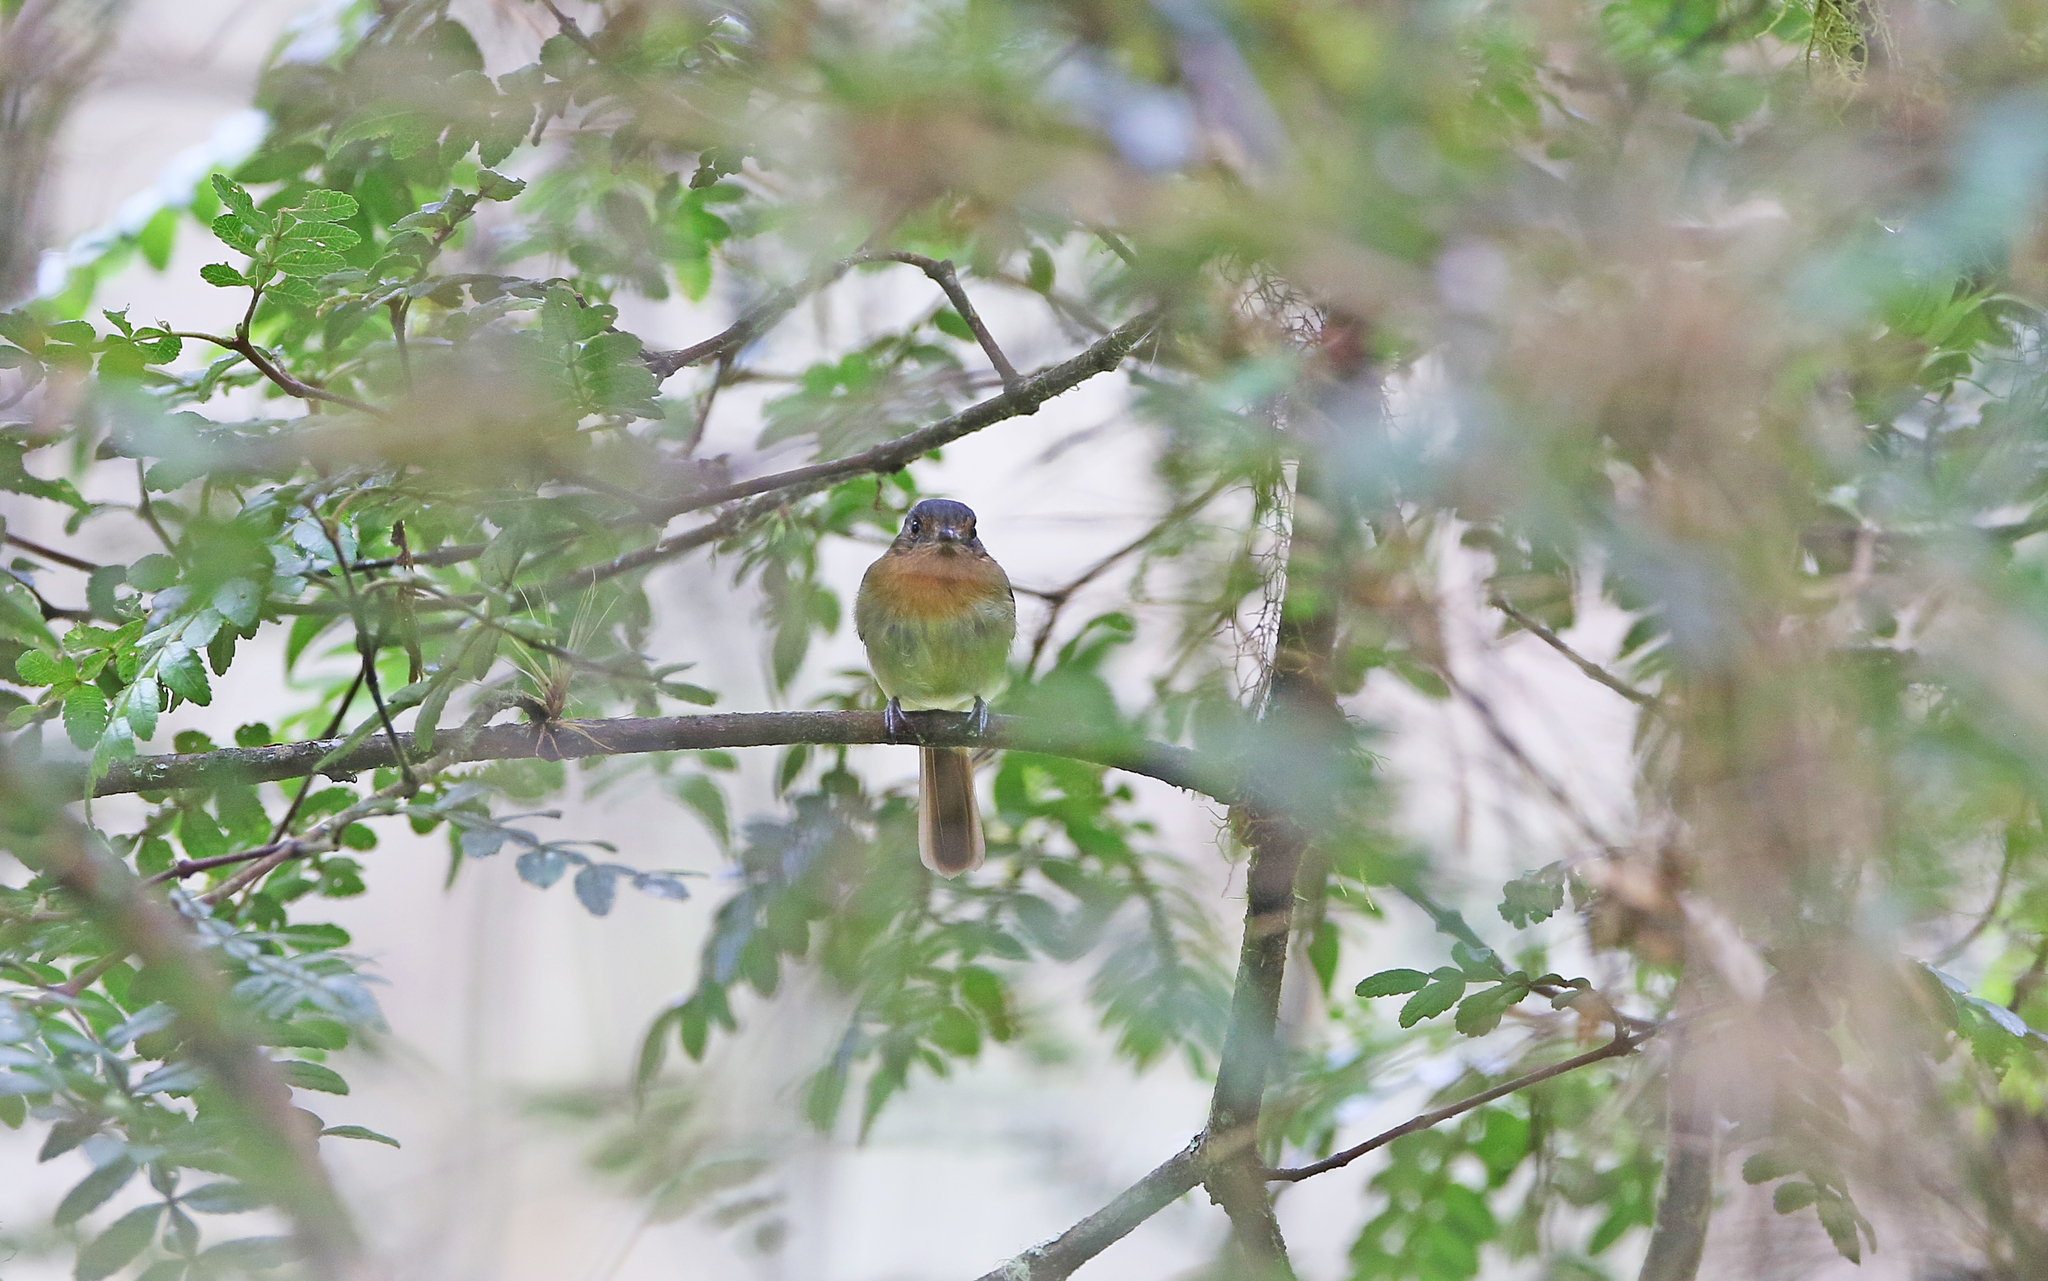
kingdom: Animalia
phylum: Chordata
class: Aves
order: Passeriformes
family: Tyrannidae
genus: Leptopogon
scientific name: Leptopogon rufipectus
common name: Rufous-breasted flycatcher
